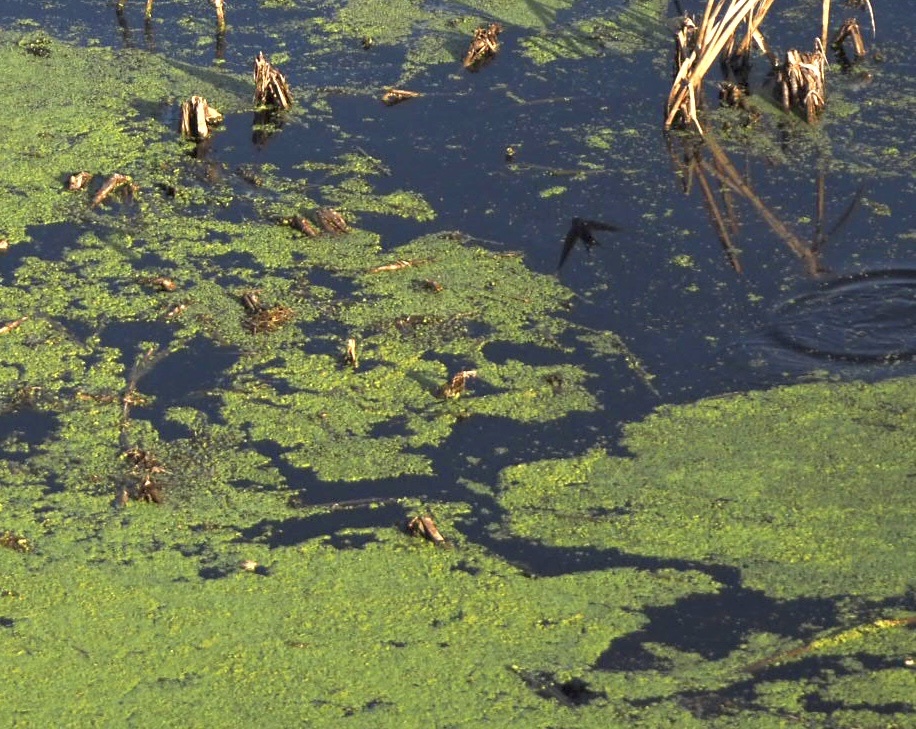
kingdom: Animalia
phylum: Chordata
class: Aves
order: Passeriformes
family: Hirundinidae
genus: Hirundo
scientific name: Hirundo rustica
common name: Barn swallow
